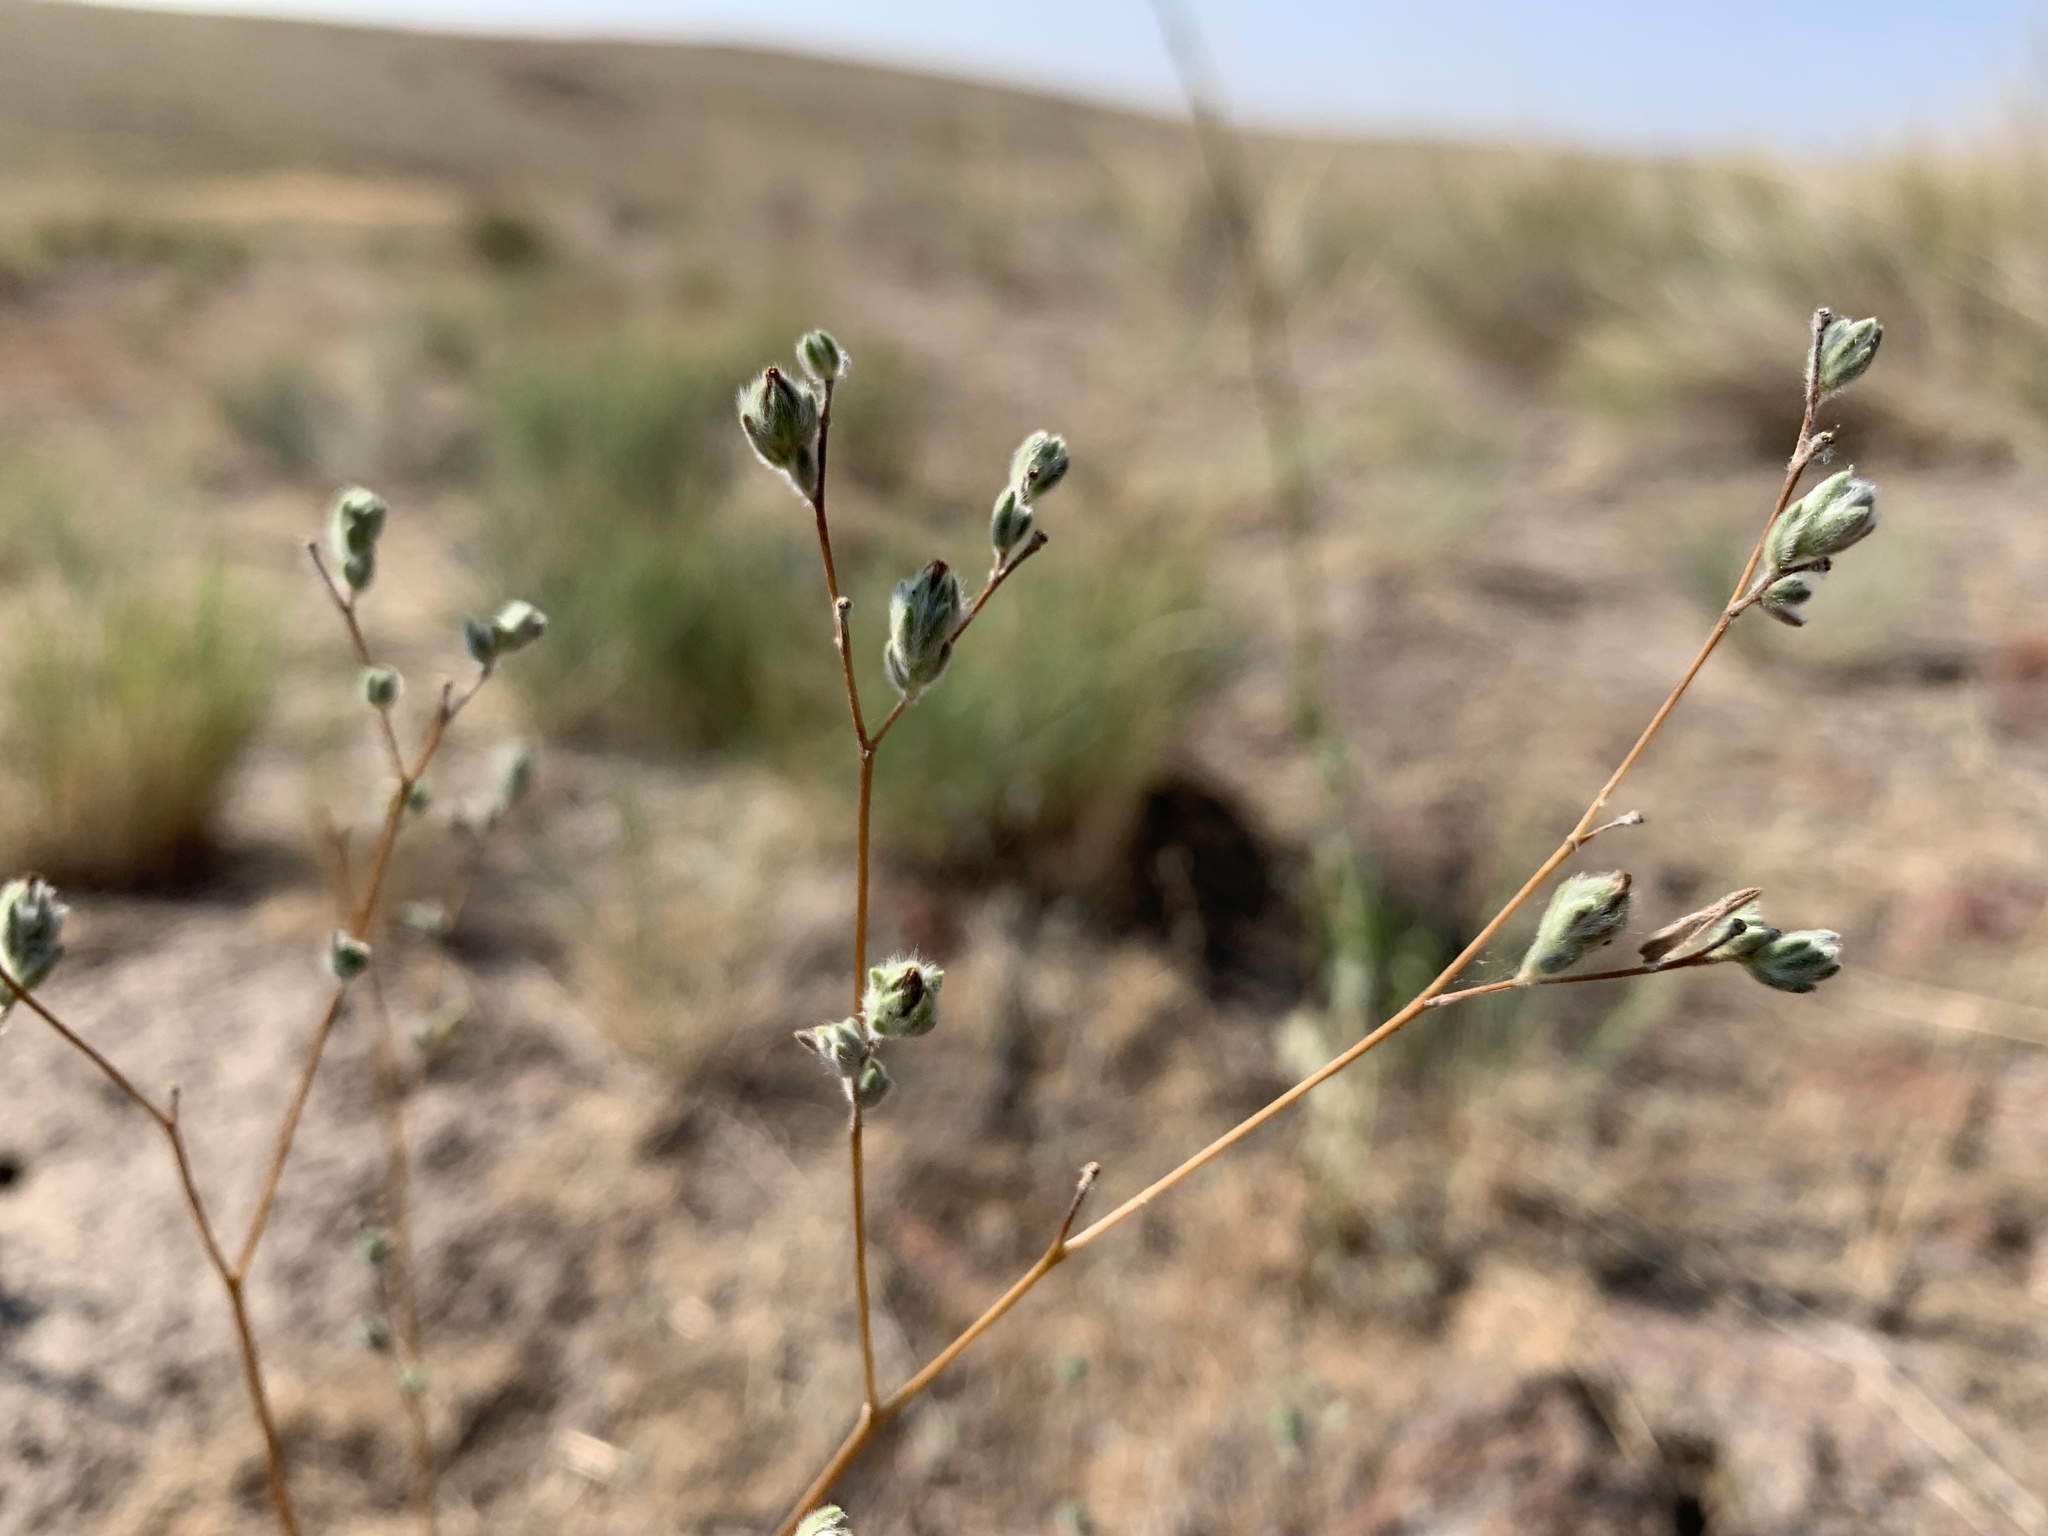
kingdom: Plantae
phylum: Tracheophyta
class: Magnoliopsida
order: Asterales
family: Asteraceae
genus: Lagophylla
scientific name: Lagophylla ramosissima
